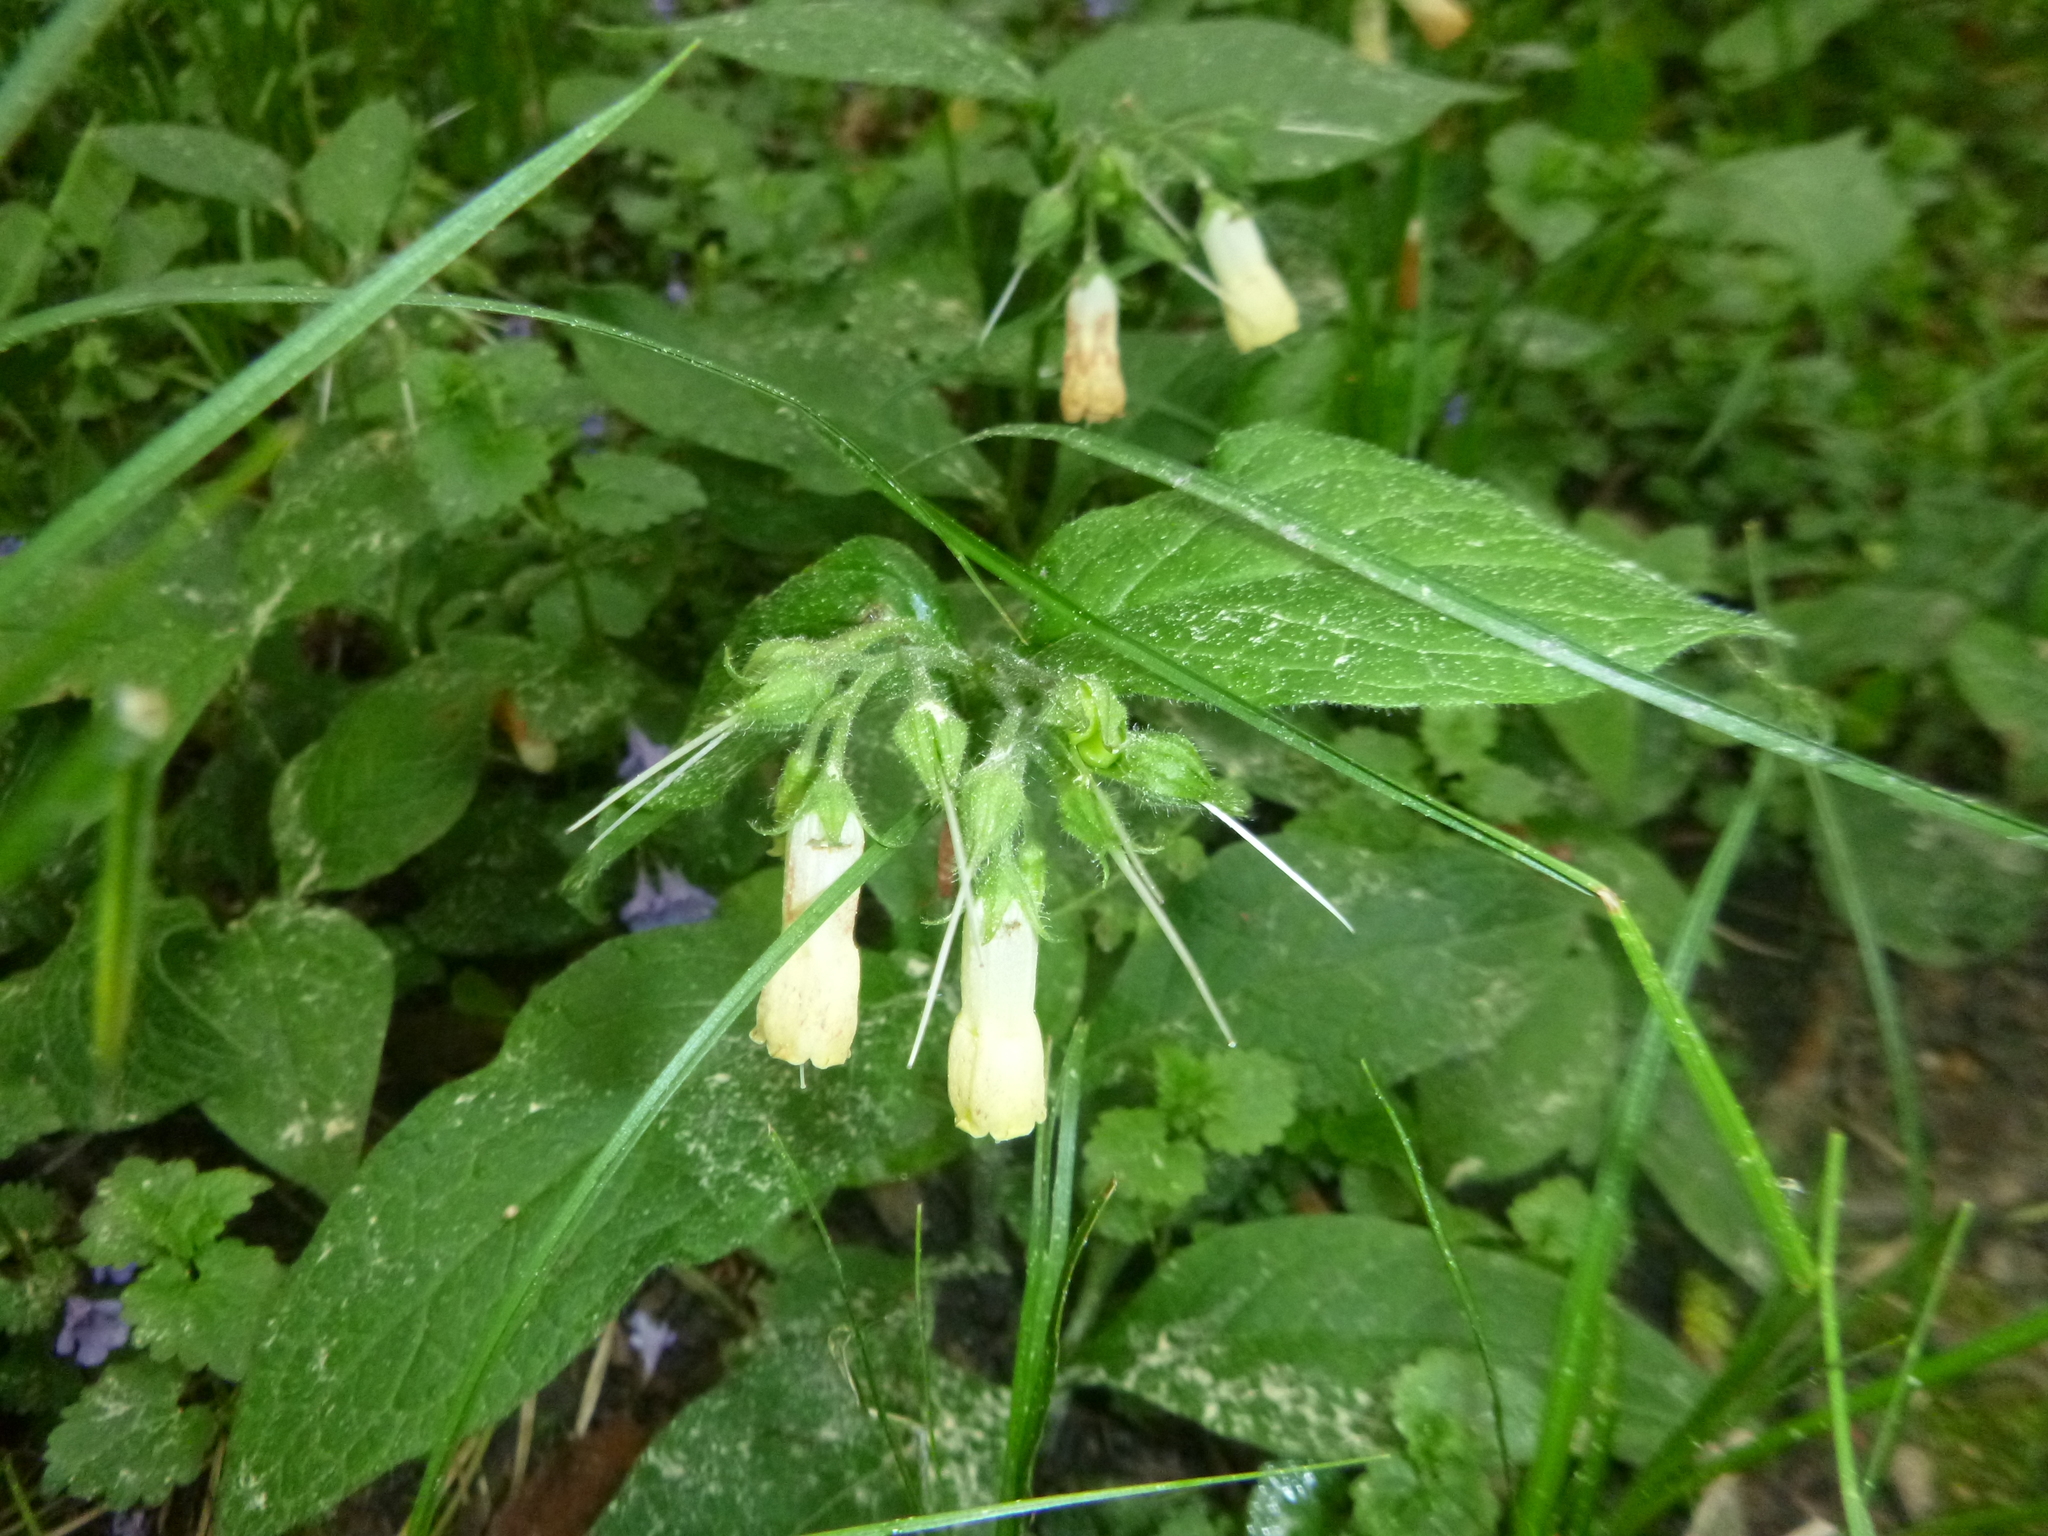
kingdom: Plantae
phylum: Tracheophyta
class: Magnoliopsida
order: Boraginales
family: Boraginaceae
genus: Symphytum
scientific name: Symphytum tuberosum
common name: Tuberous comfrey
